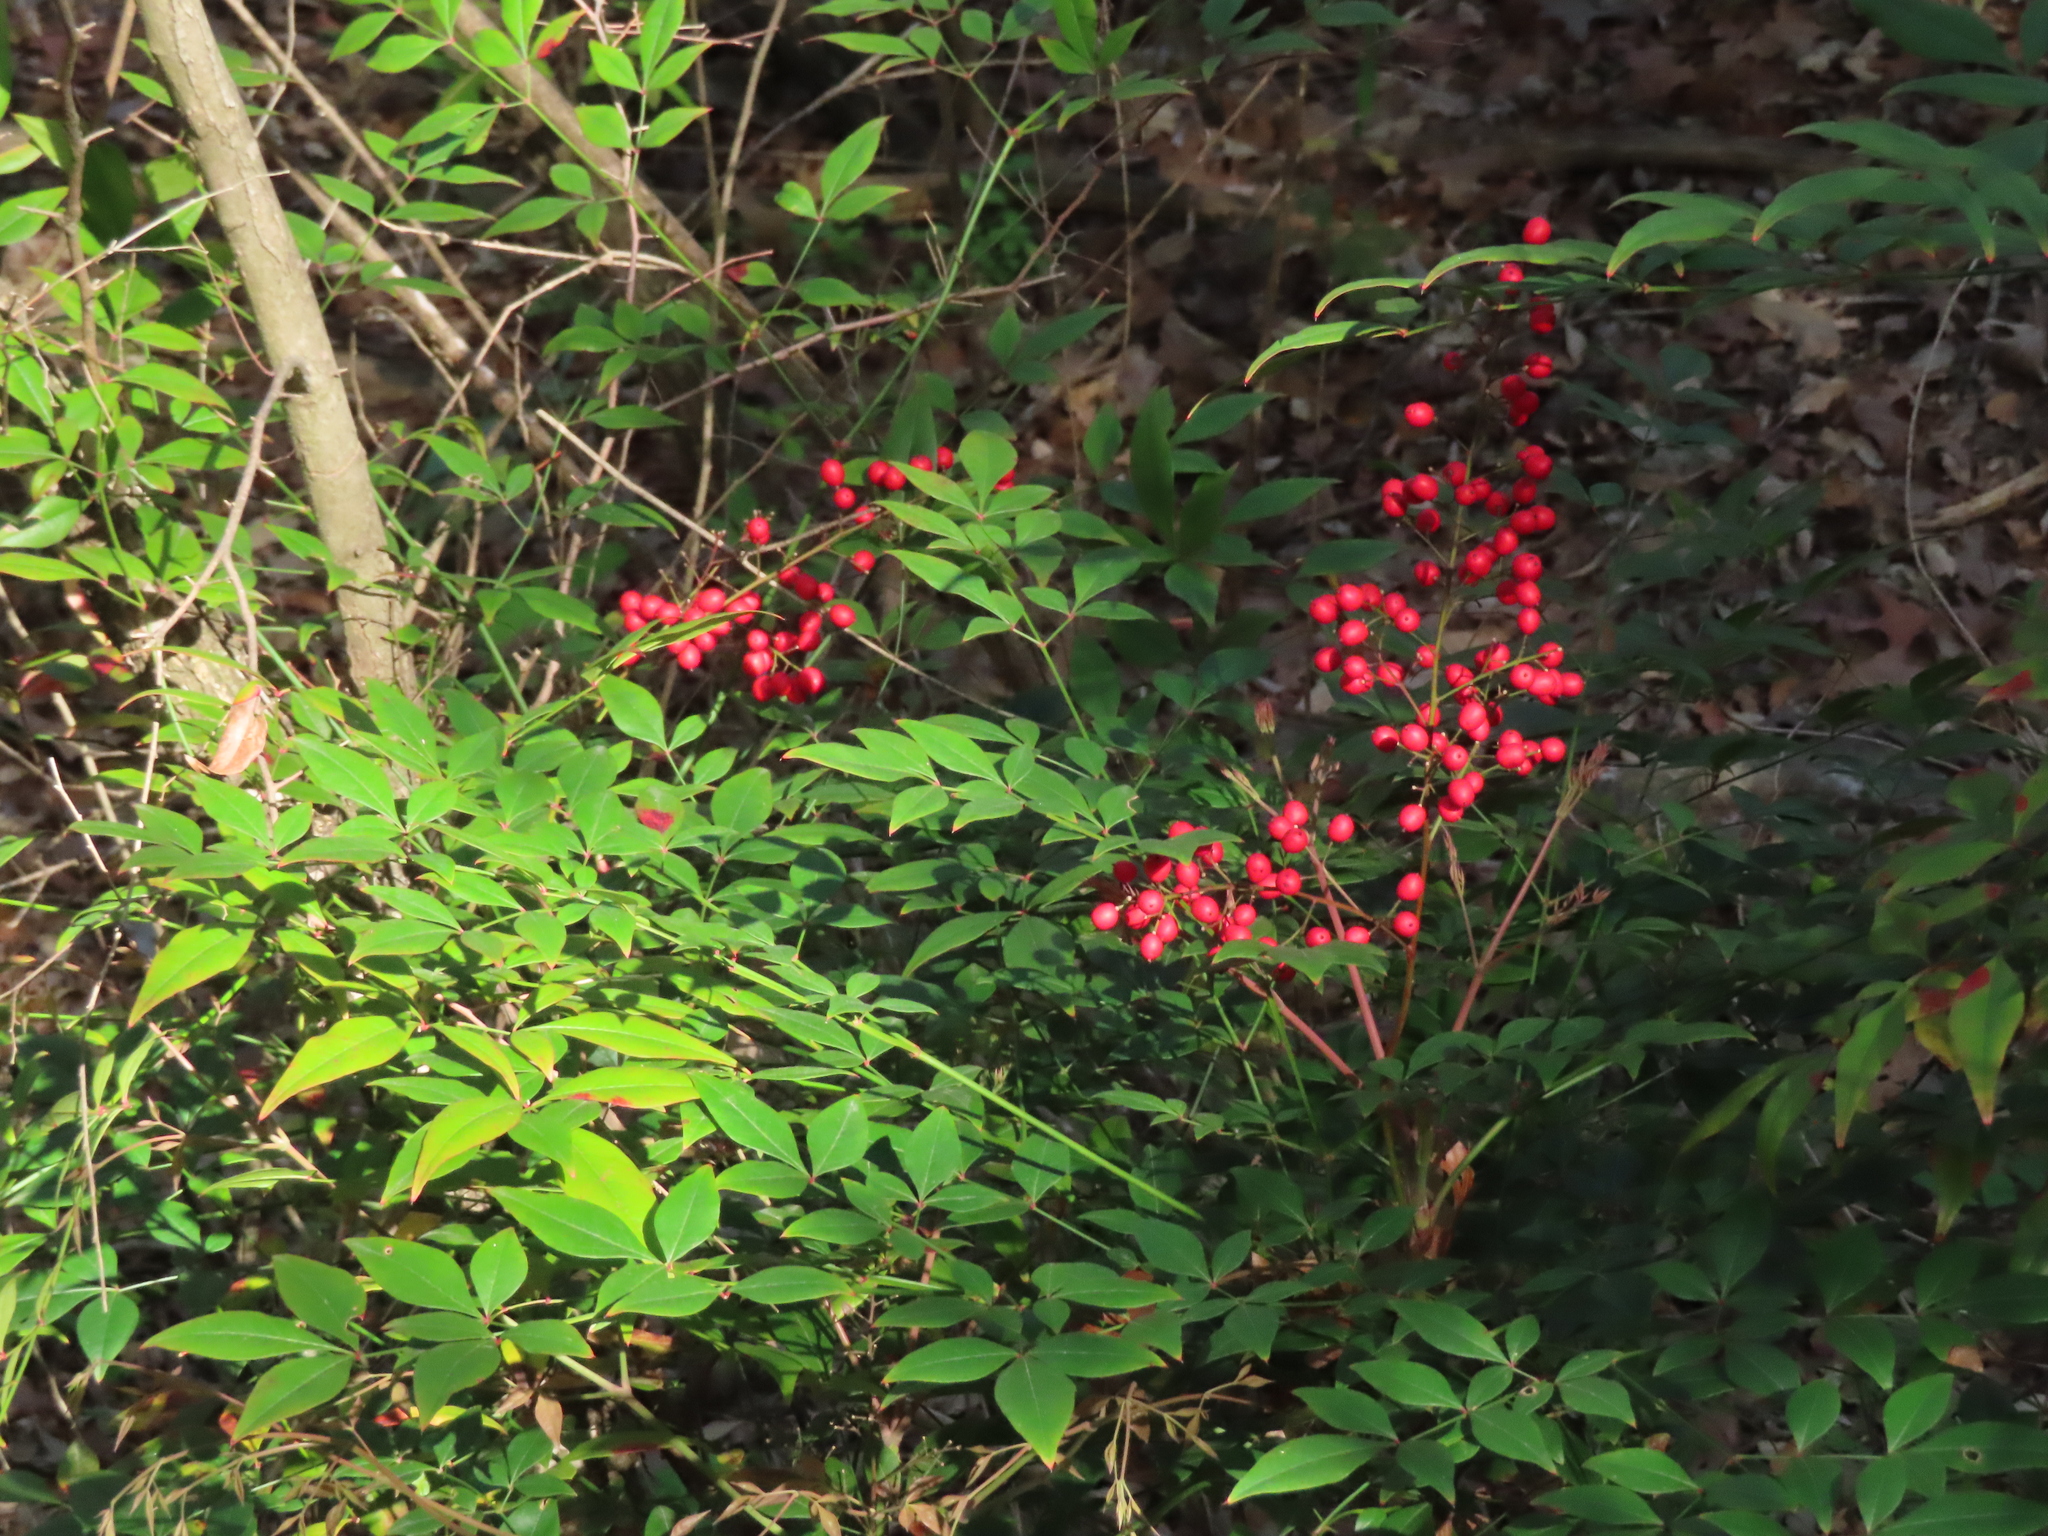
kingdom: Plantae
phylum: Tracheophyta
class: Magnoliopsida
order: Ranunculales
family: Berberidaceae
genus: Nandina
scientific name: Nandina domestica
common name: Sacred bamboo
